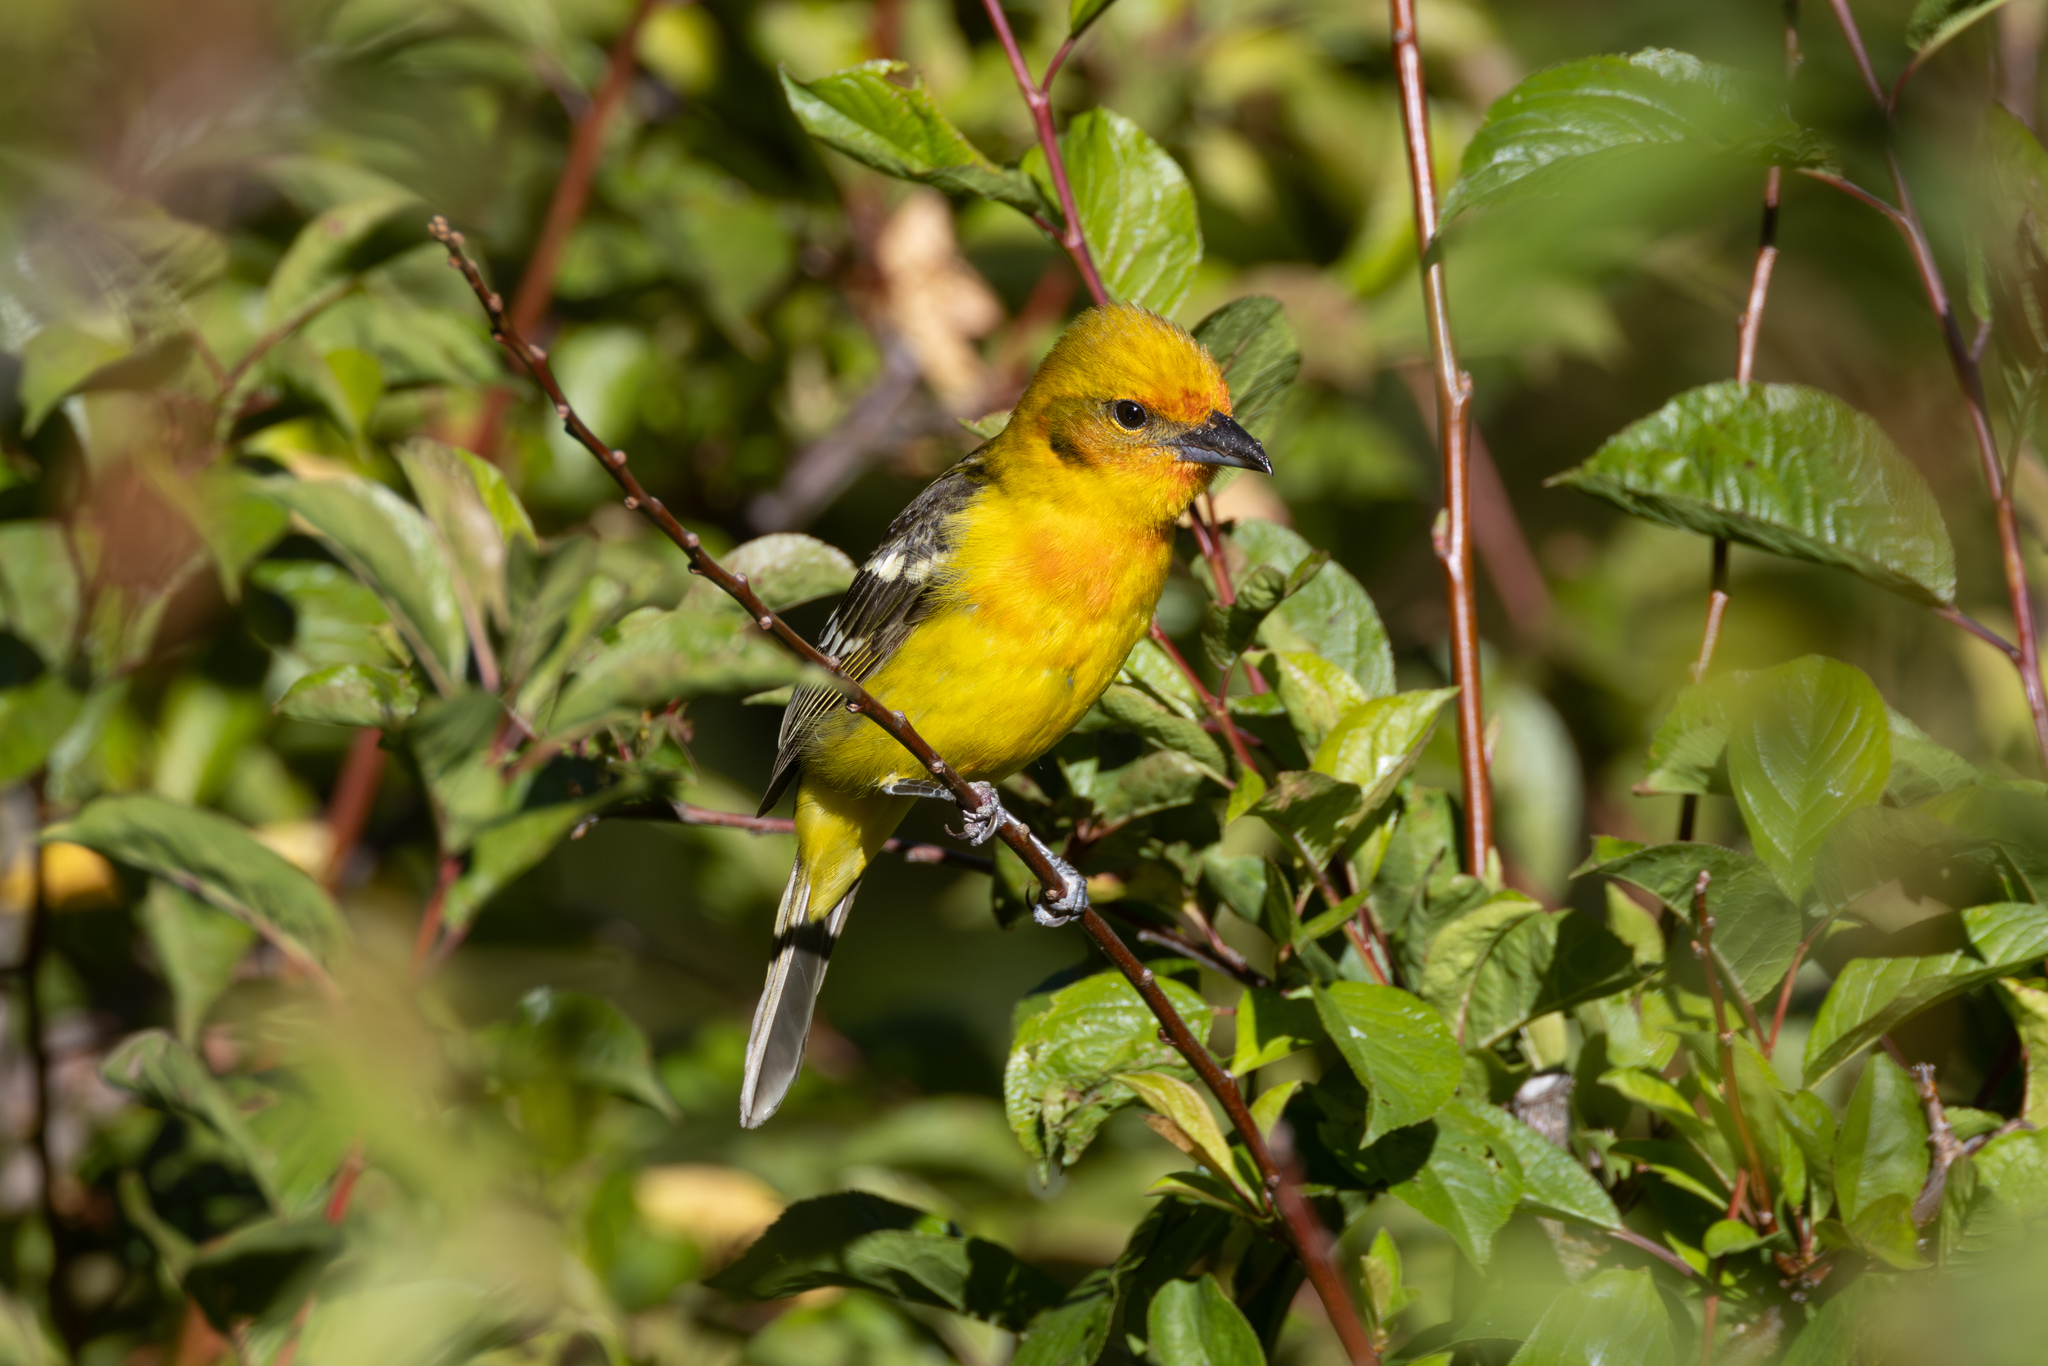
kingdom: Animalia
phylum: Chordata
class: Aves
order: Passeriformes
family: Cardinalidae
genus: Piranga
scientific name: Piranga bidentata
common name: Flame-colored tanager
